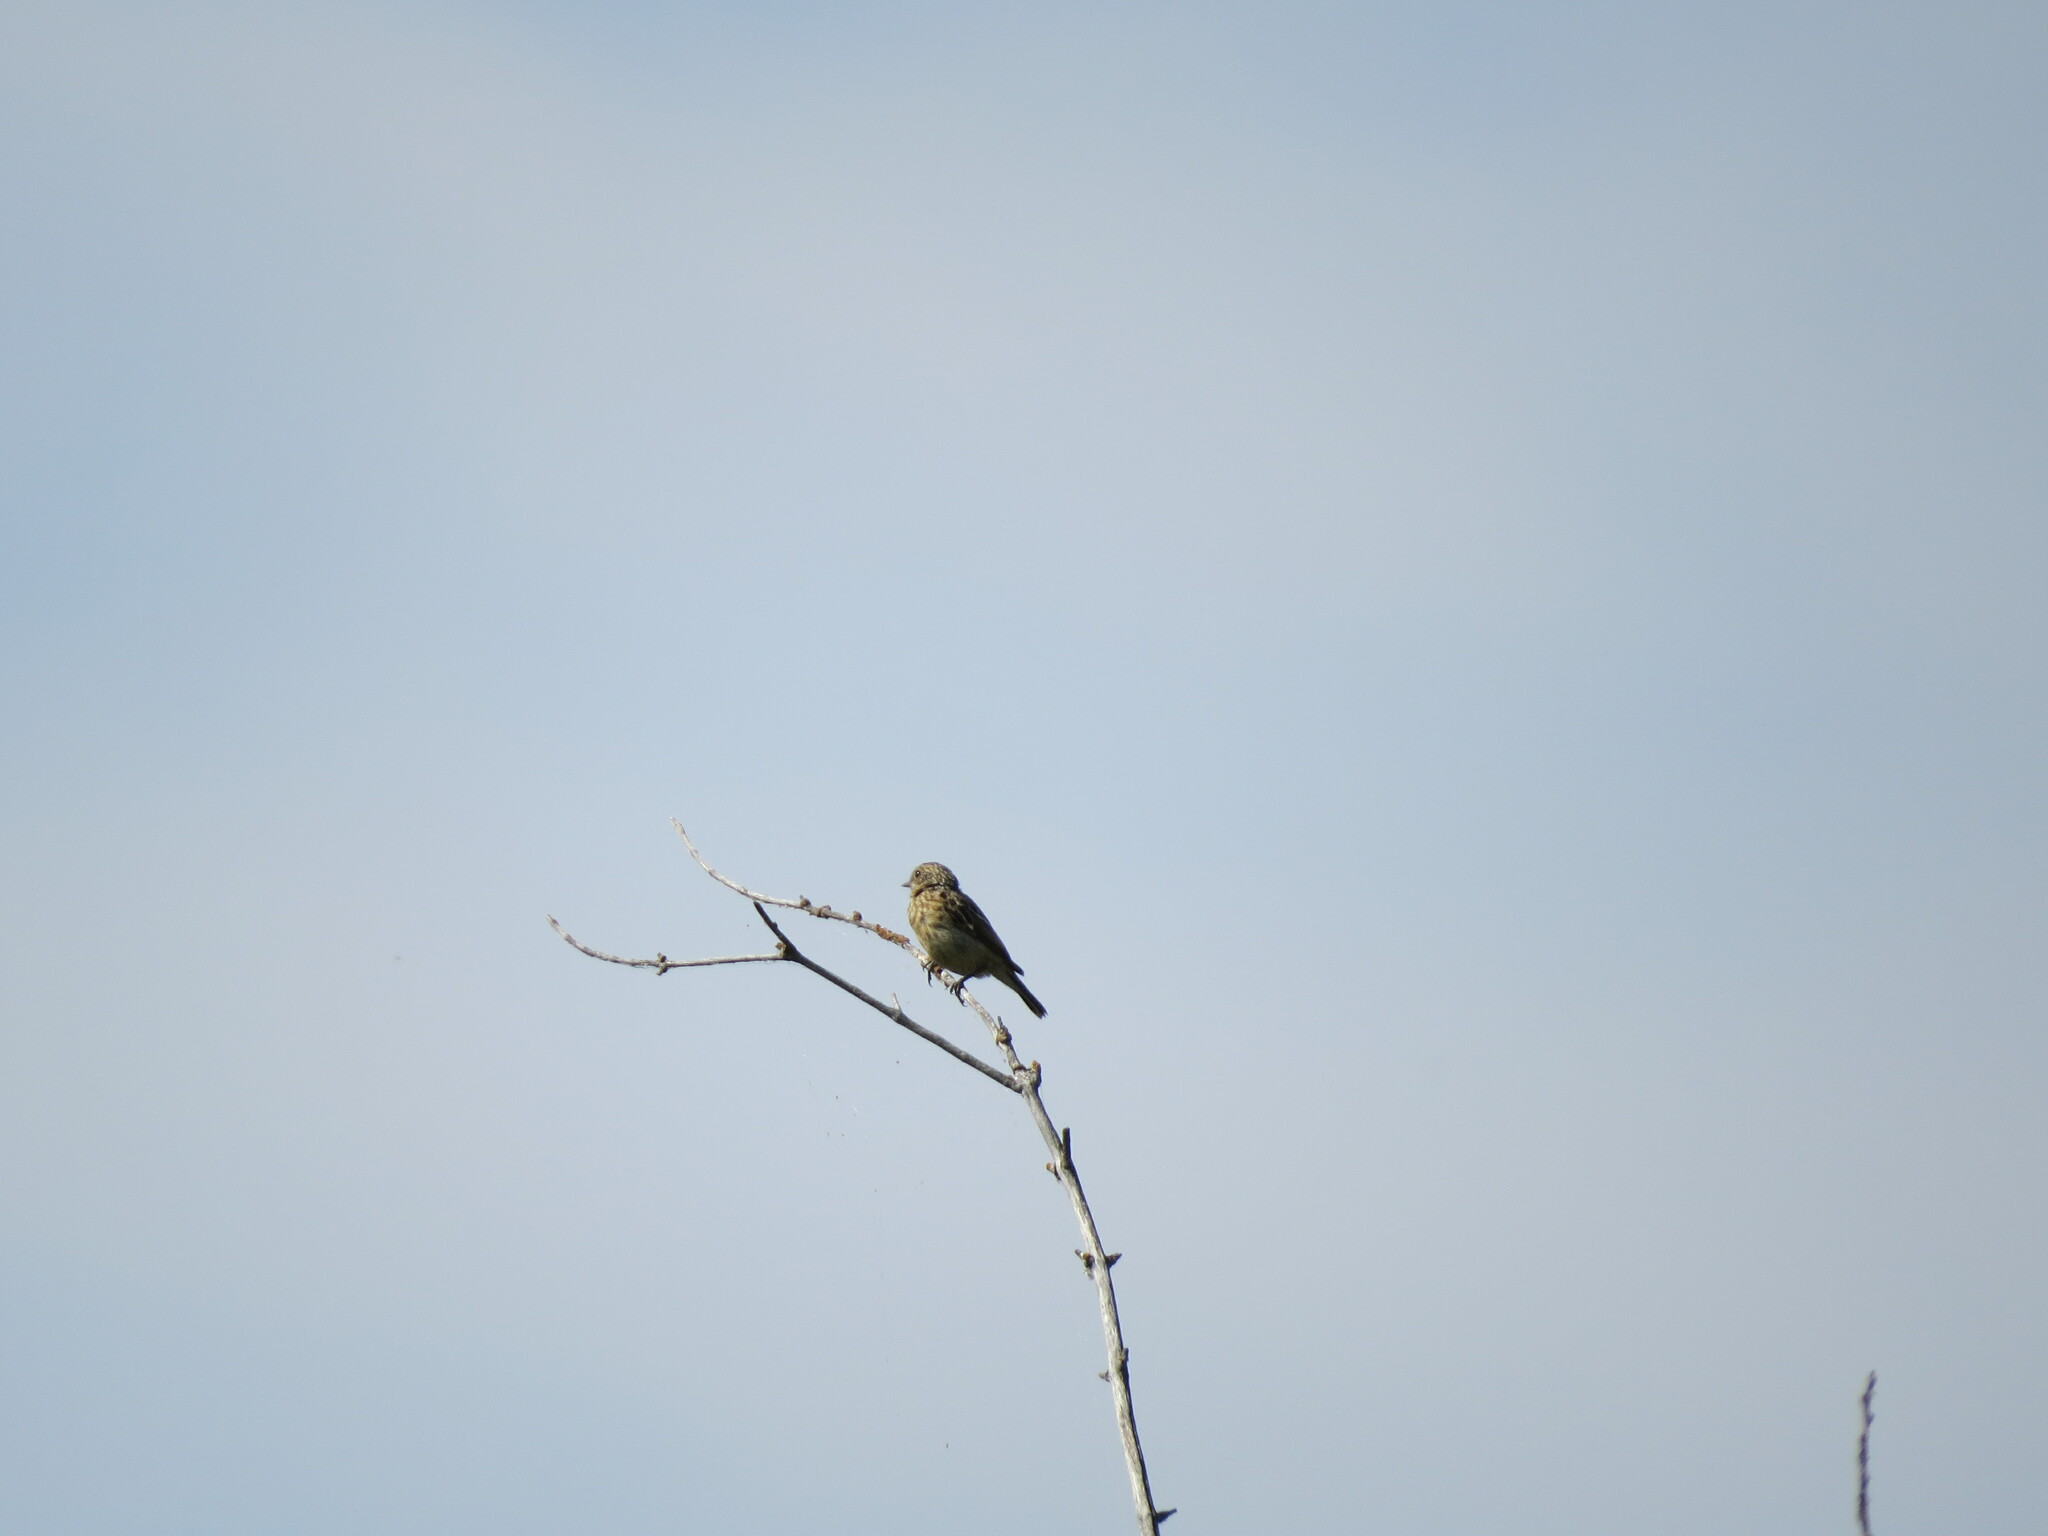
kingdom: Animalia
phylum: Chordata
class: Aves
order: Passeriformes
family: Muscicapidae
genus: Saxicola
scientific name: Saxicola maurus
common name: Siberian stonechat
